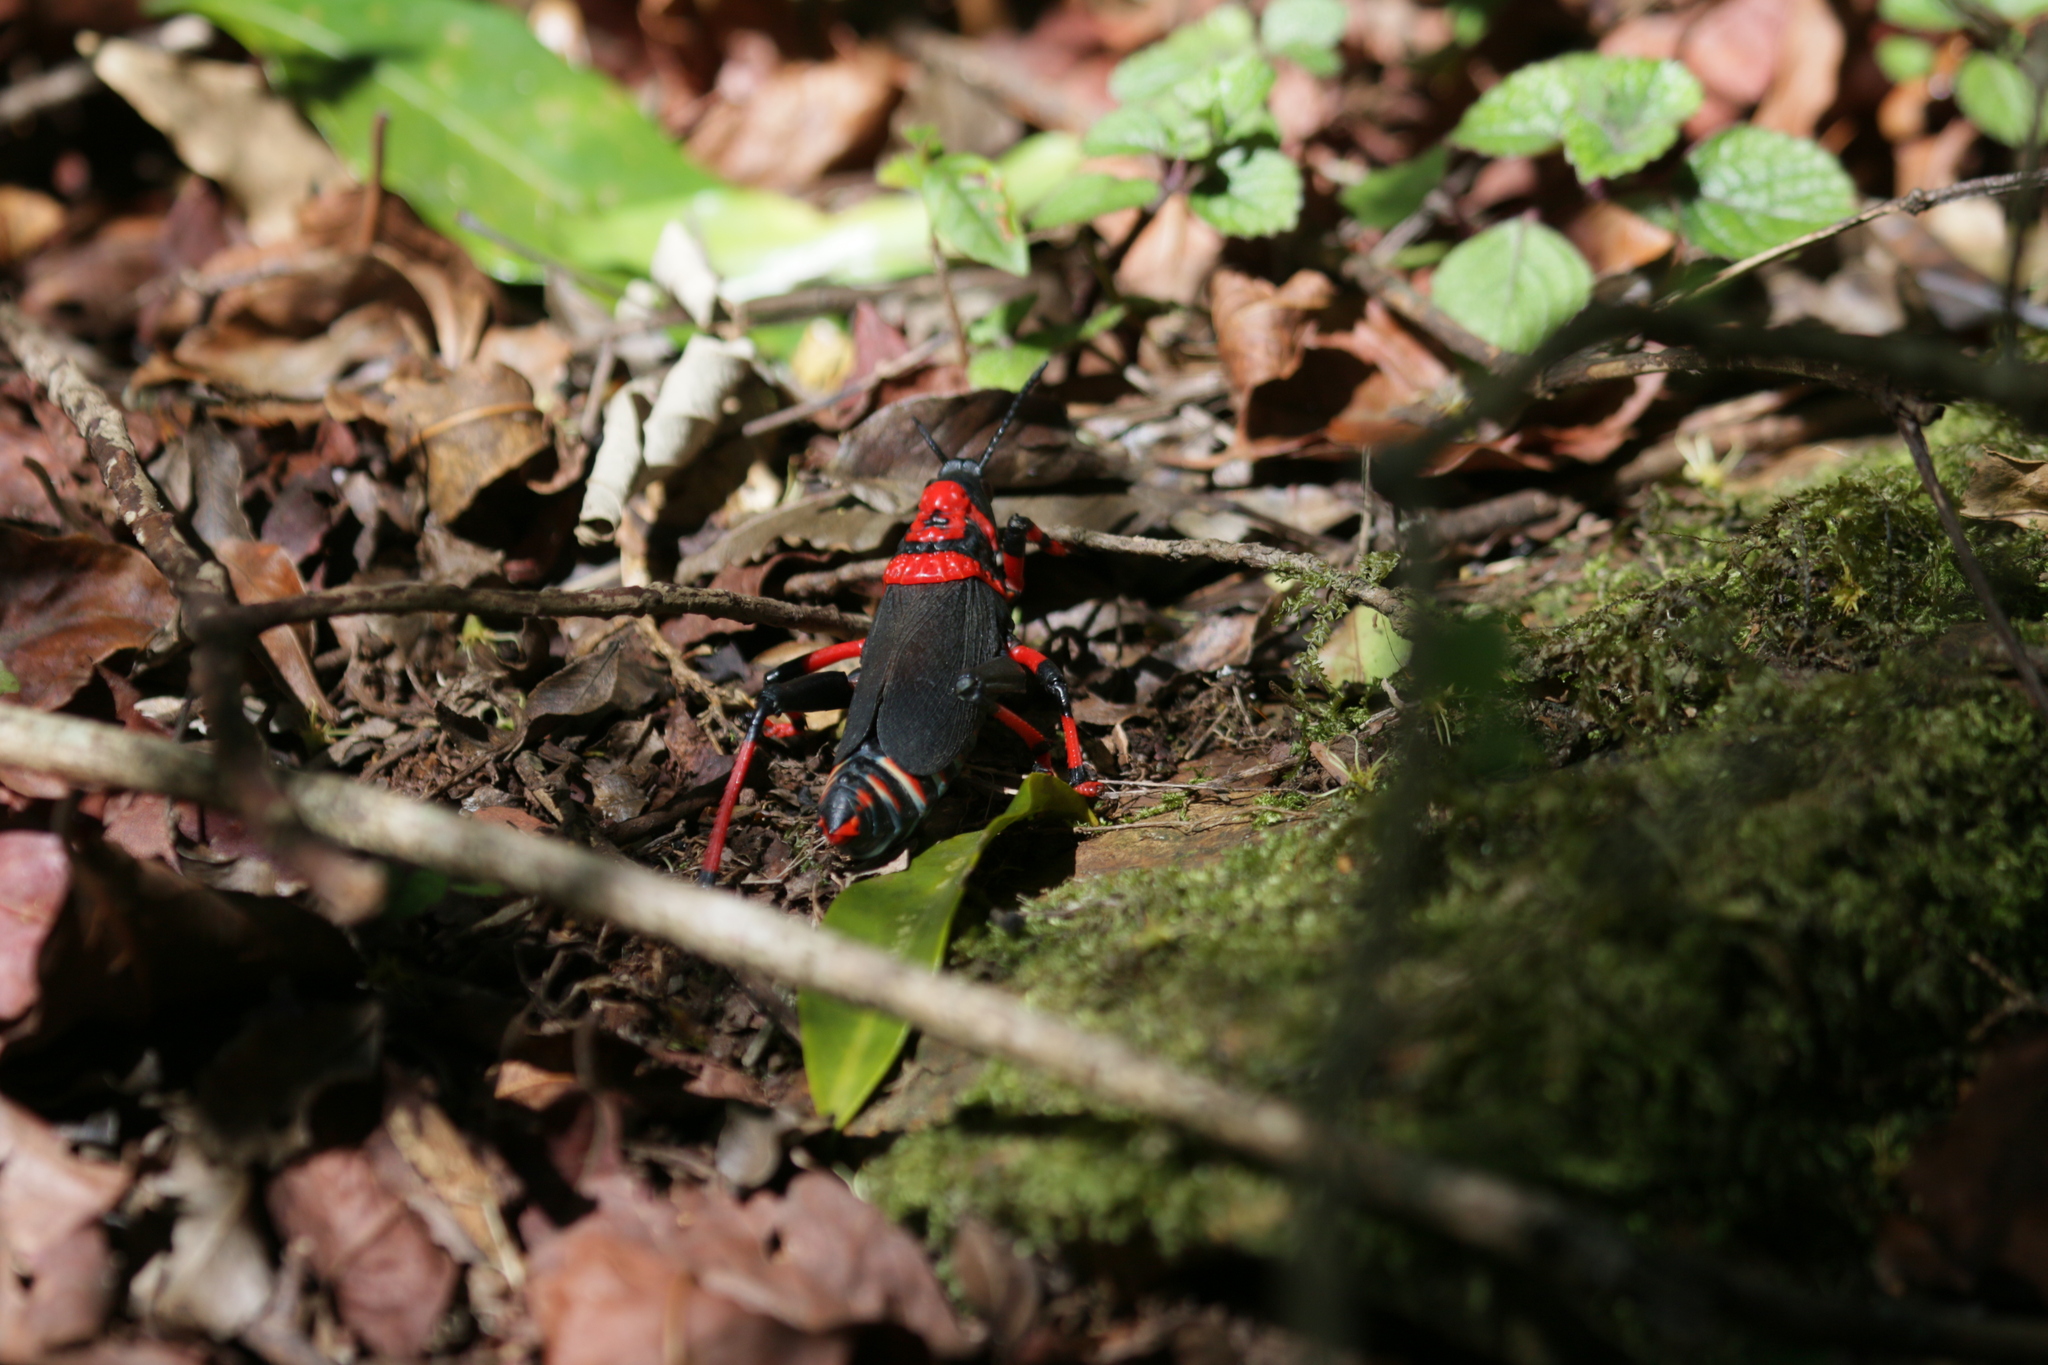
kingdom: Animalia
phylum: Arthropoda
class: Insecta
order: Orthoptera
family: Pyrgomorphidae
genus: Dictyophorus
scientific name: Dictyophorus spumans
